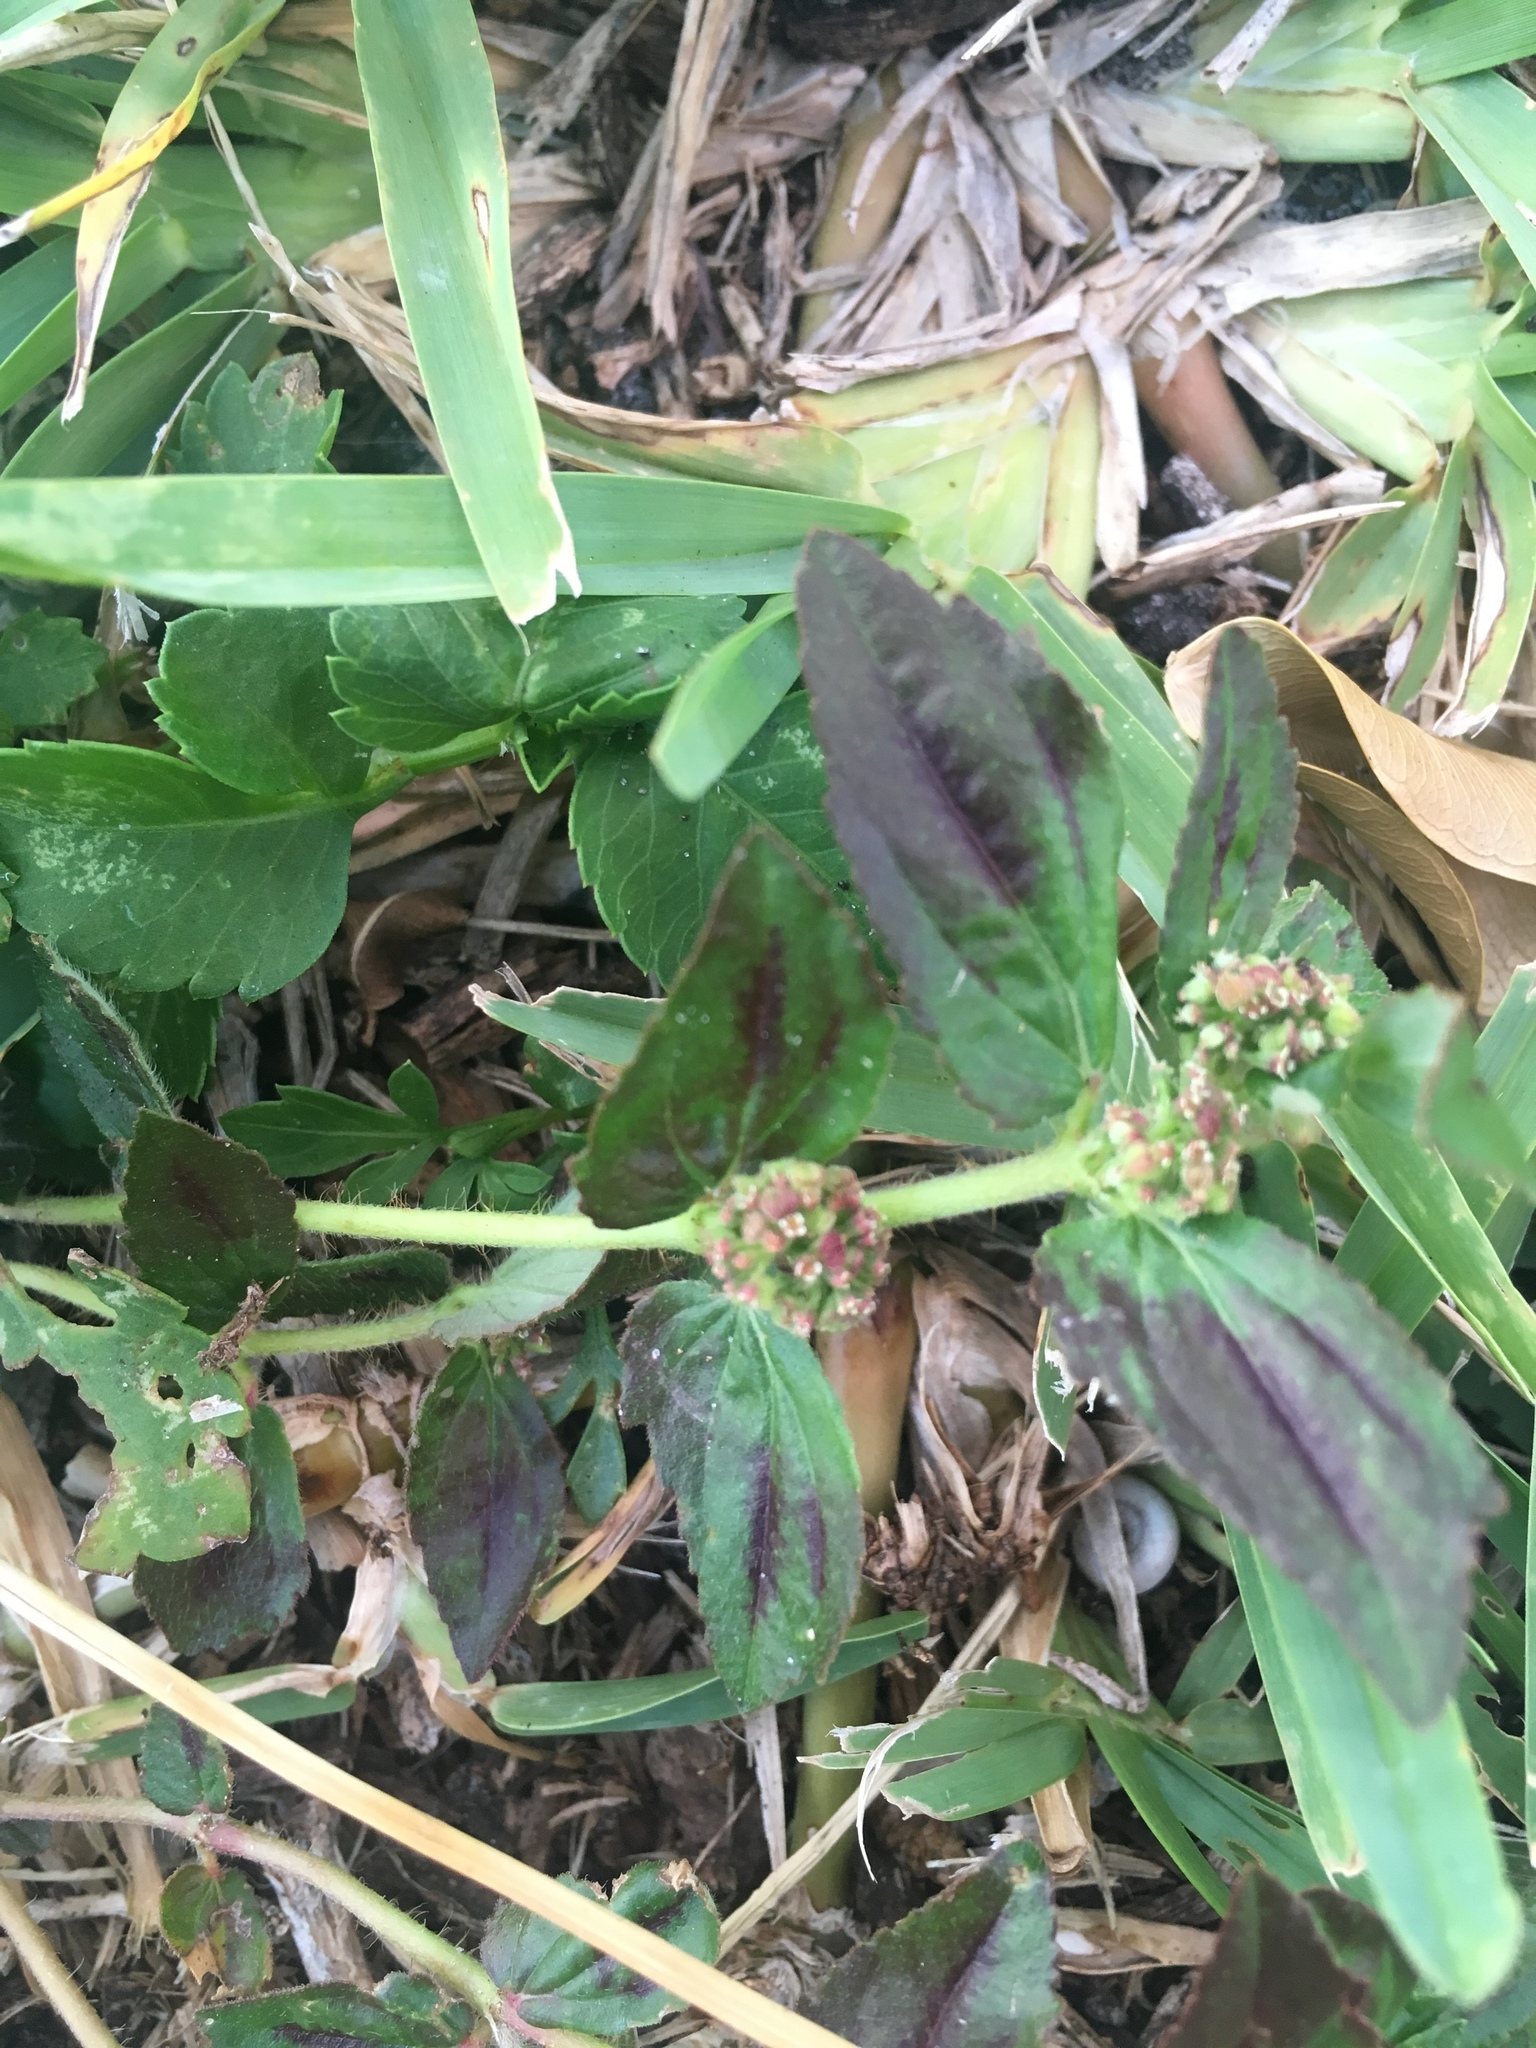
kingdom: Plantae
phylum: Tracheophyta
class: Magnoliopsida
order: Malpighiales
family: Euphorbiaceae
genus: Euphorbia
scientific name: Euphorbia hirta
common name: Pillpod sandmat
